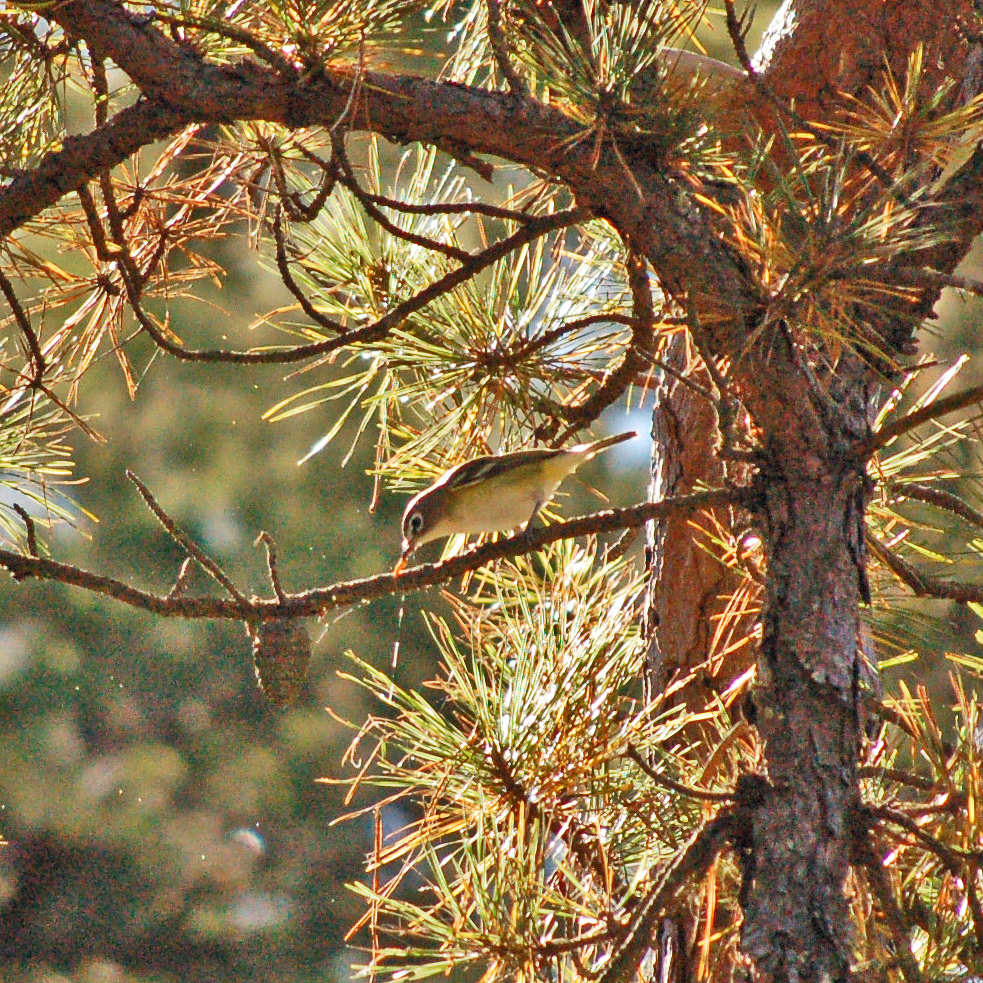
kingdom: Animalia
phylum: Chordata
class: Aves
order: Passeriformes
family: Vireonidae
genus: Vireo
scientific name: Vireo solitarius
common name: Blue-headed vireo
